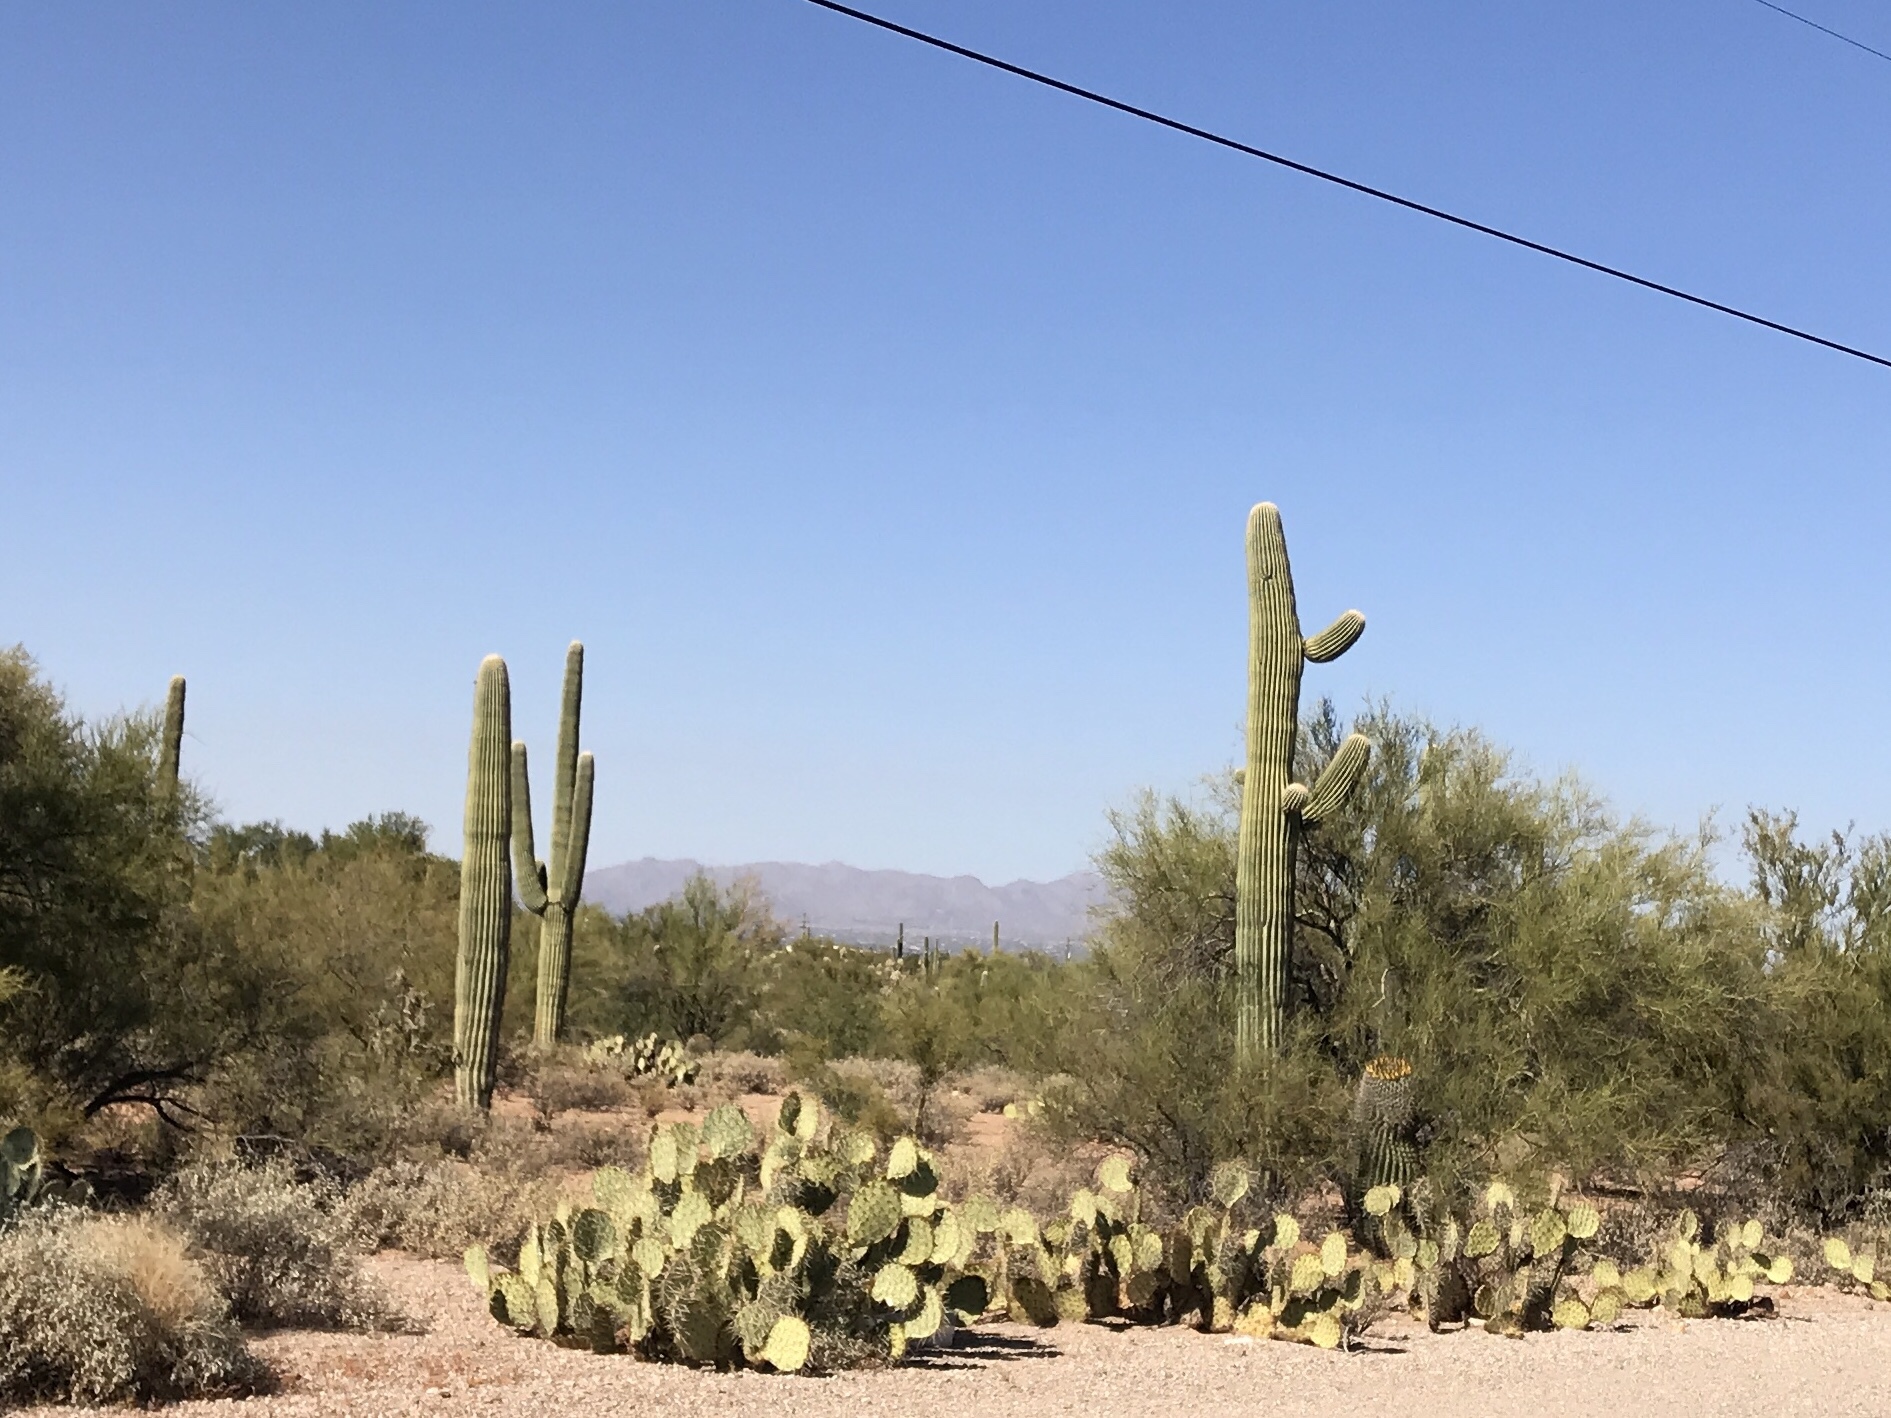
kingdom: Plantae
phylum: Tracheophyta
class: Magnoliopsida
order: Caryophyllales
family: Cactaceae
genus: Carnegiea
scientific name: Carnegiea gigantea
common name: Saguaro
